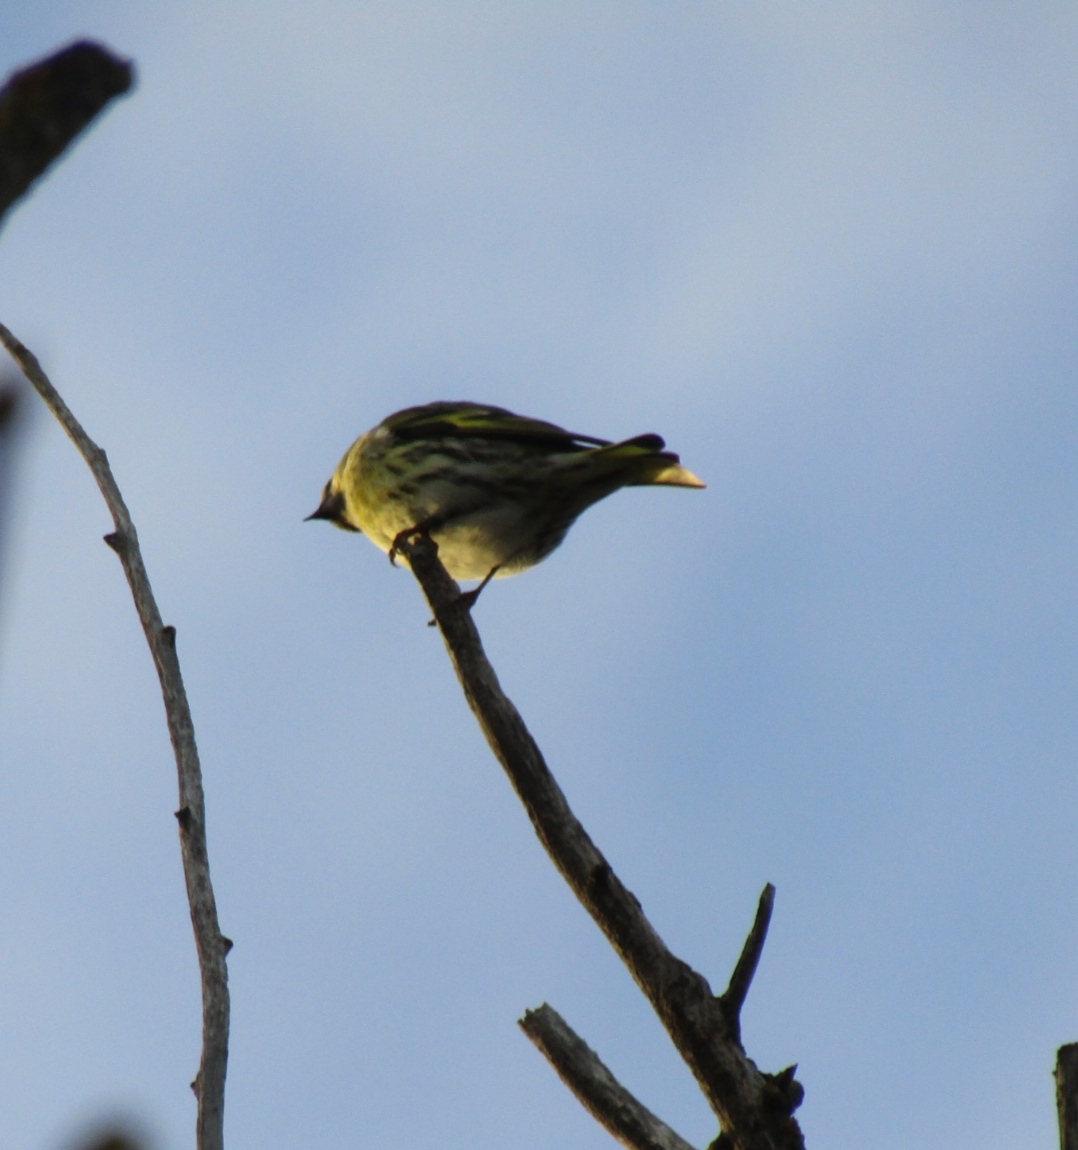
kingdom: Animalia
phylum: Chordata
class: Aves
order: Passeriformes
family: Fringillidae
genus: Spinus
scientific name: Spinus spinus
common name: Eurasian siskin
